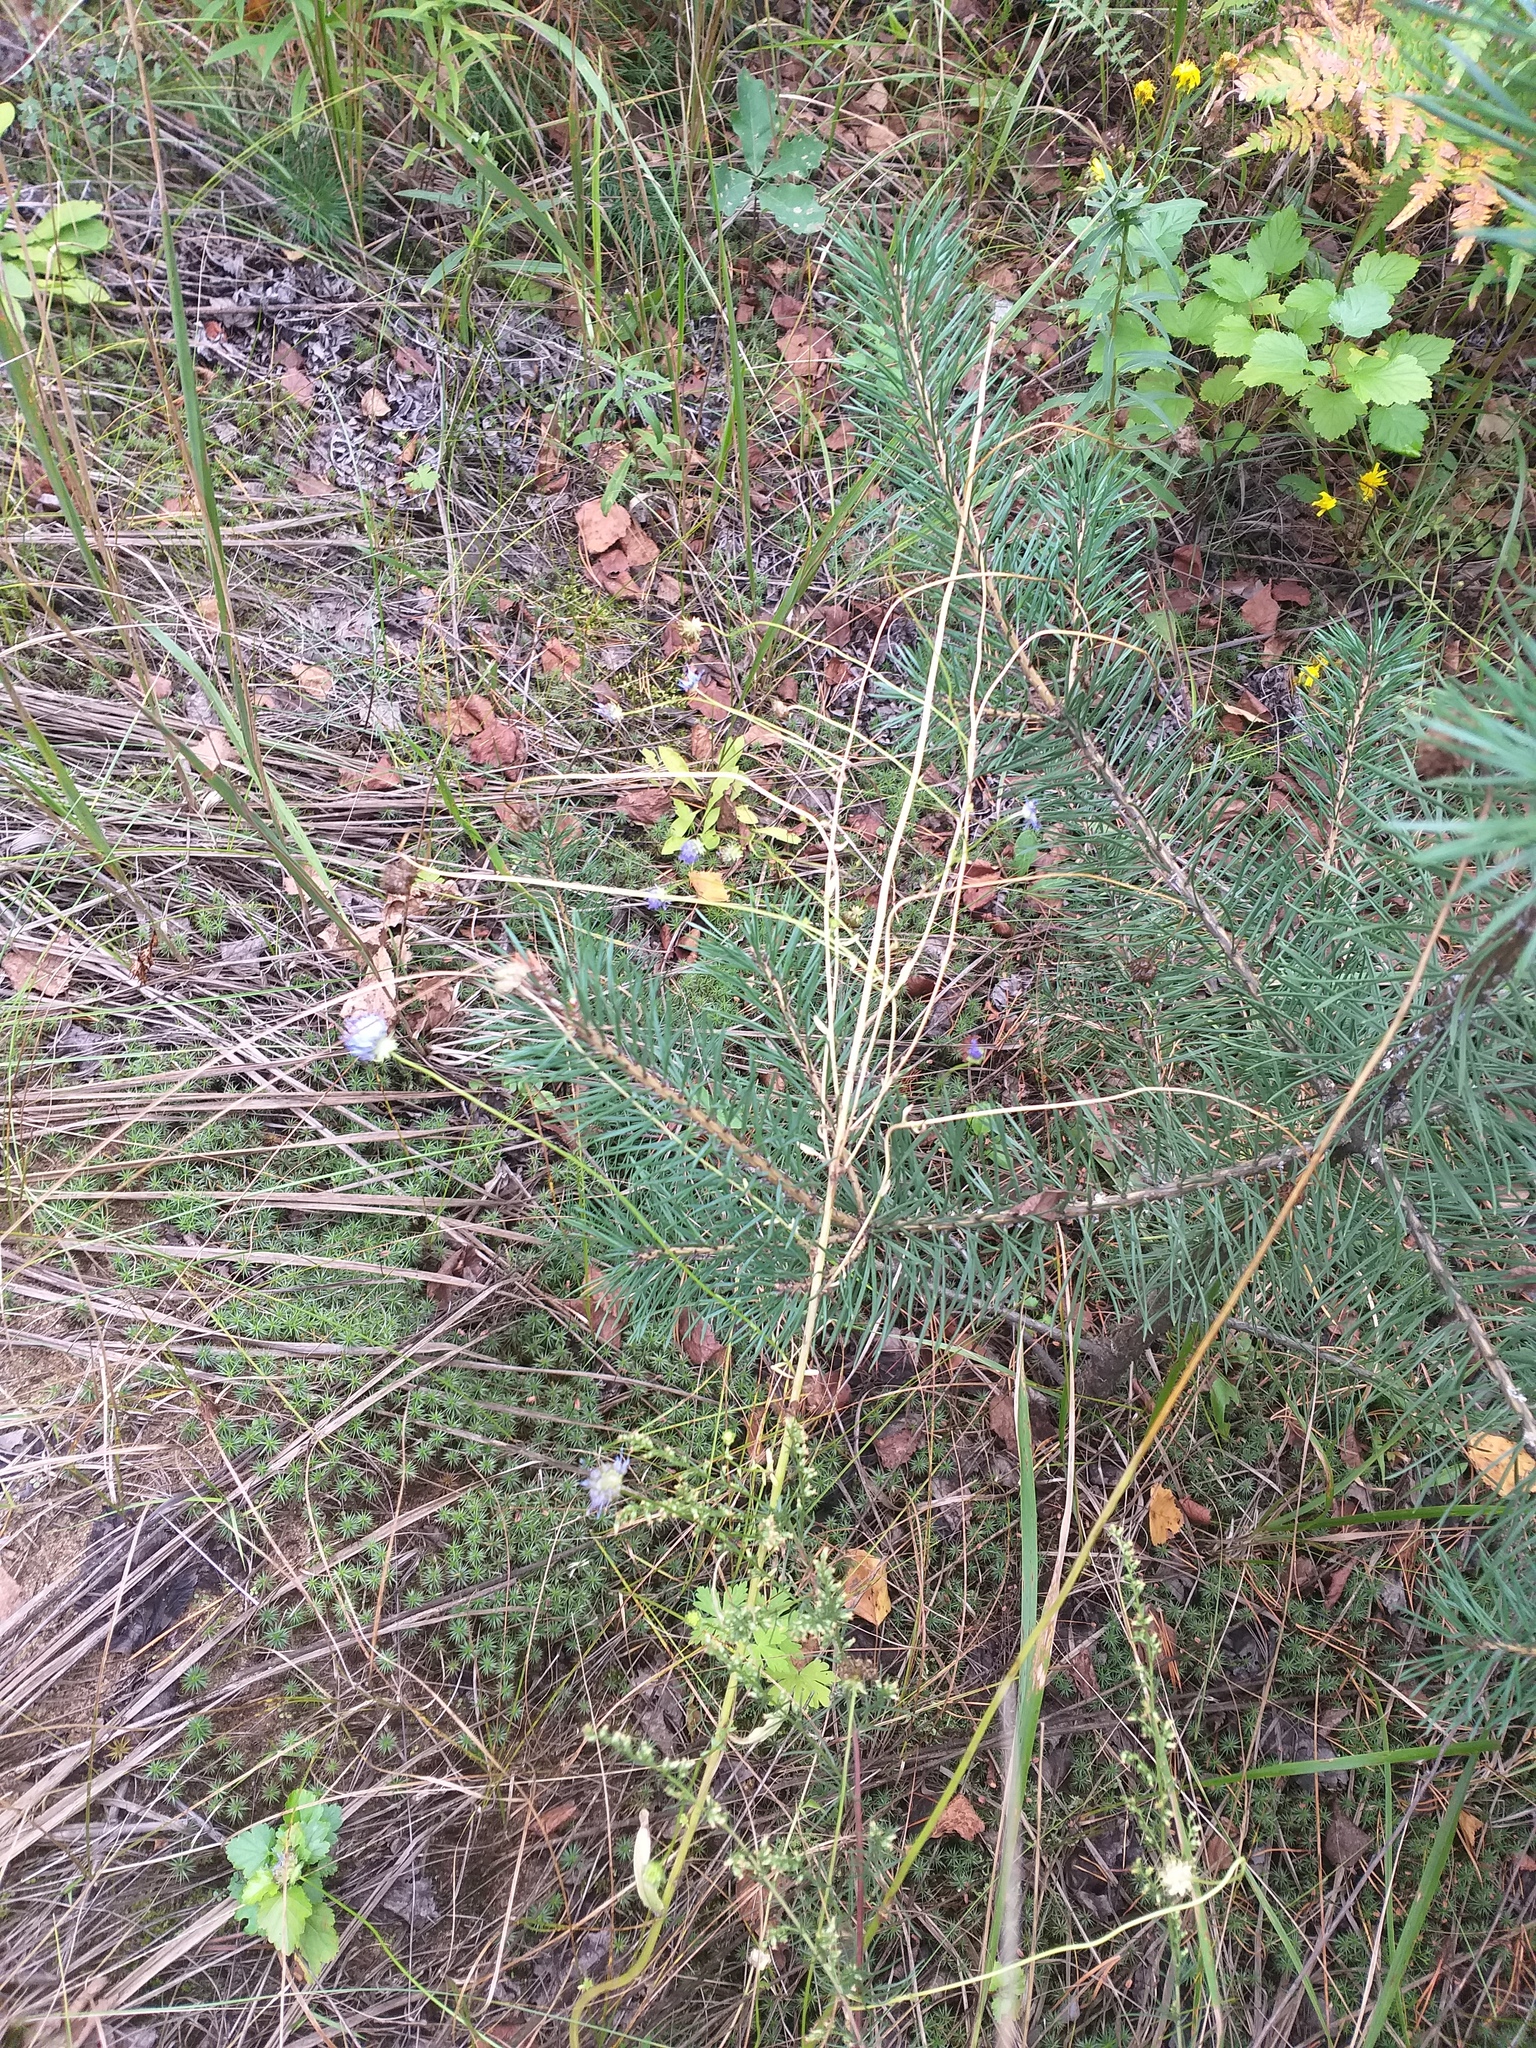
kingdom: Plantae
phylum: Tracheophyta
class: Magnoliopsida
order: Asterales
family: Campanulaceae
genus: Jasione
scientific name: Jasione montana
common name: Sheep's-bit
